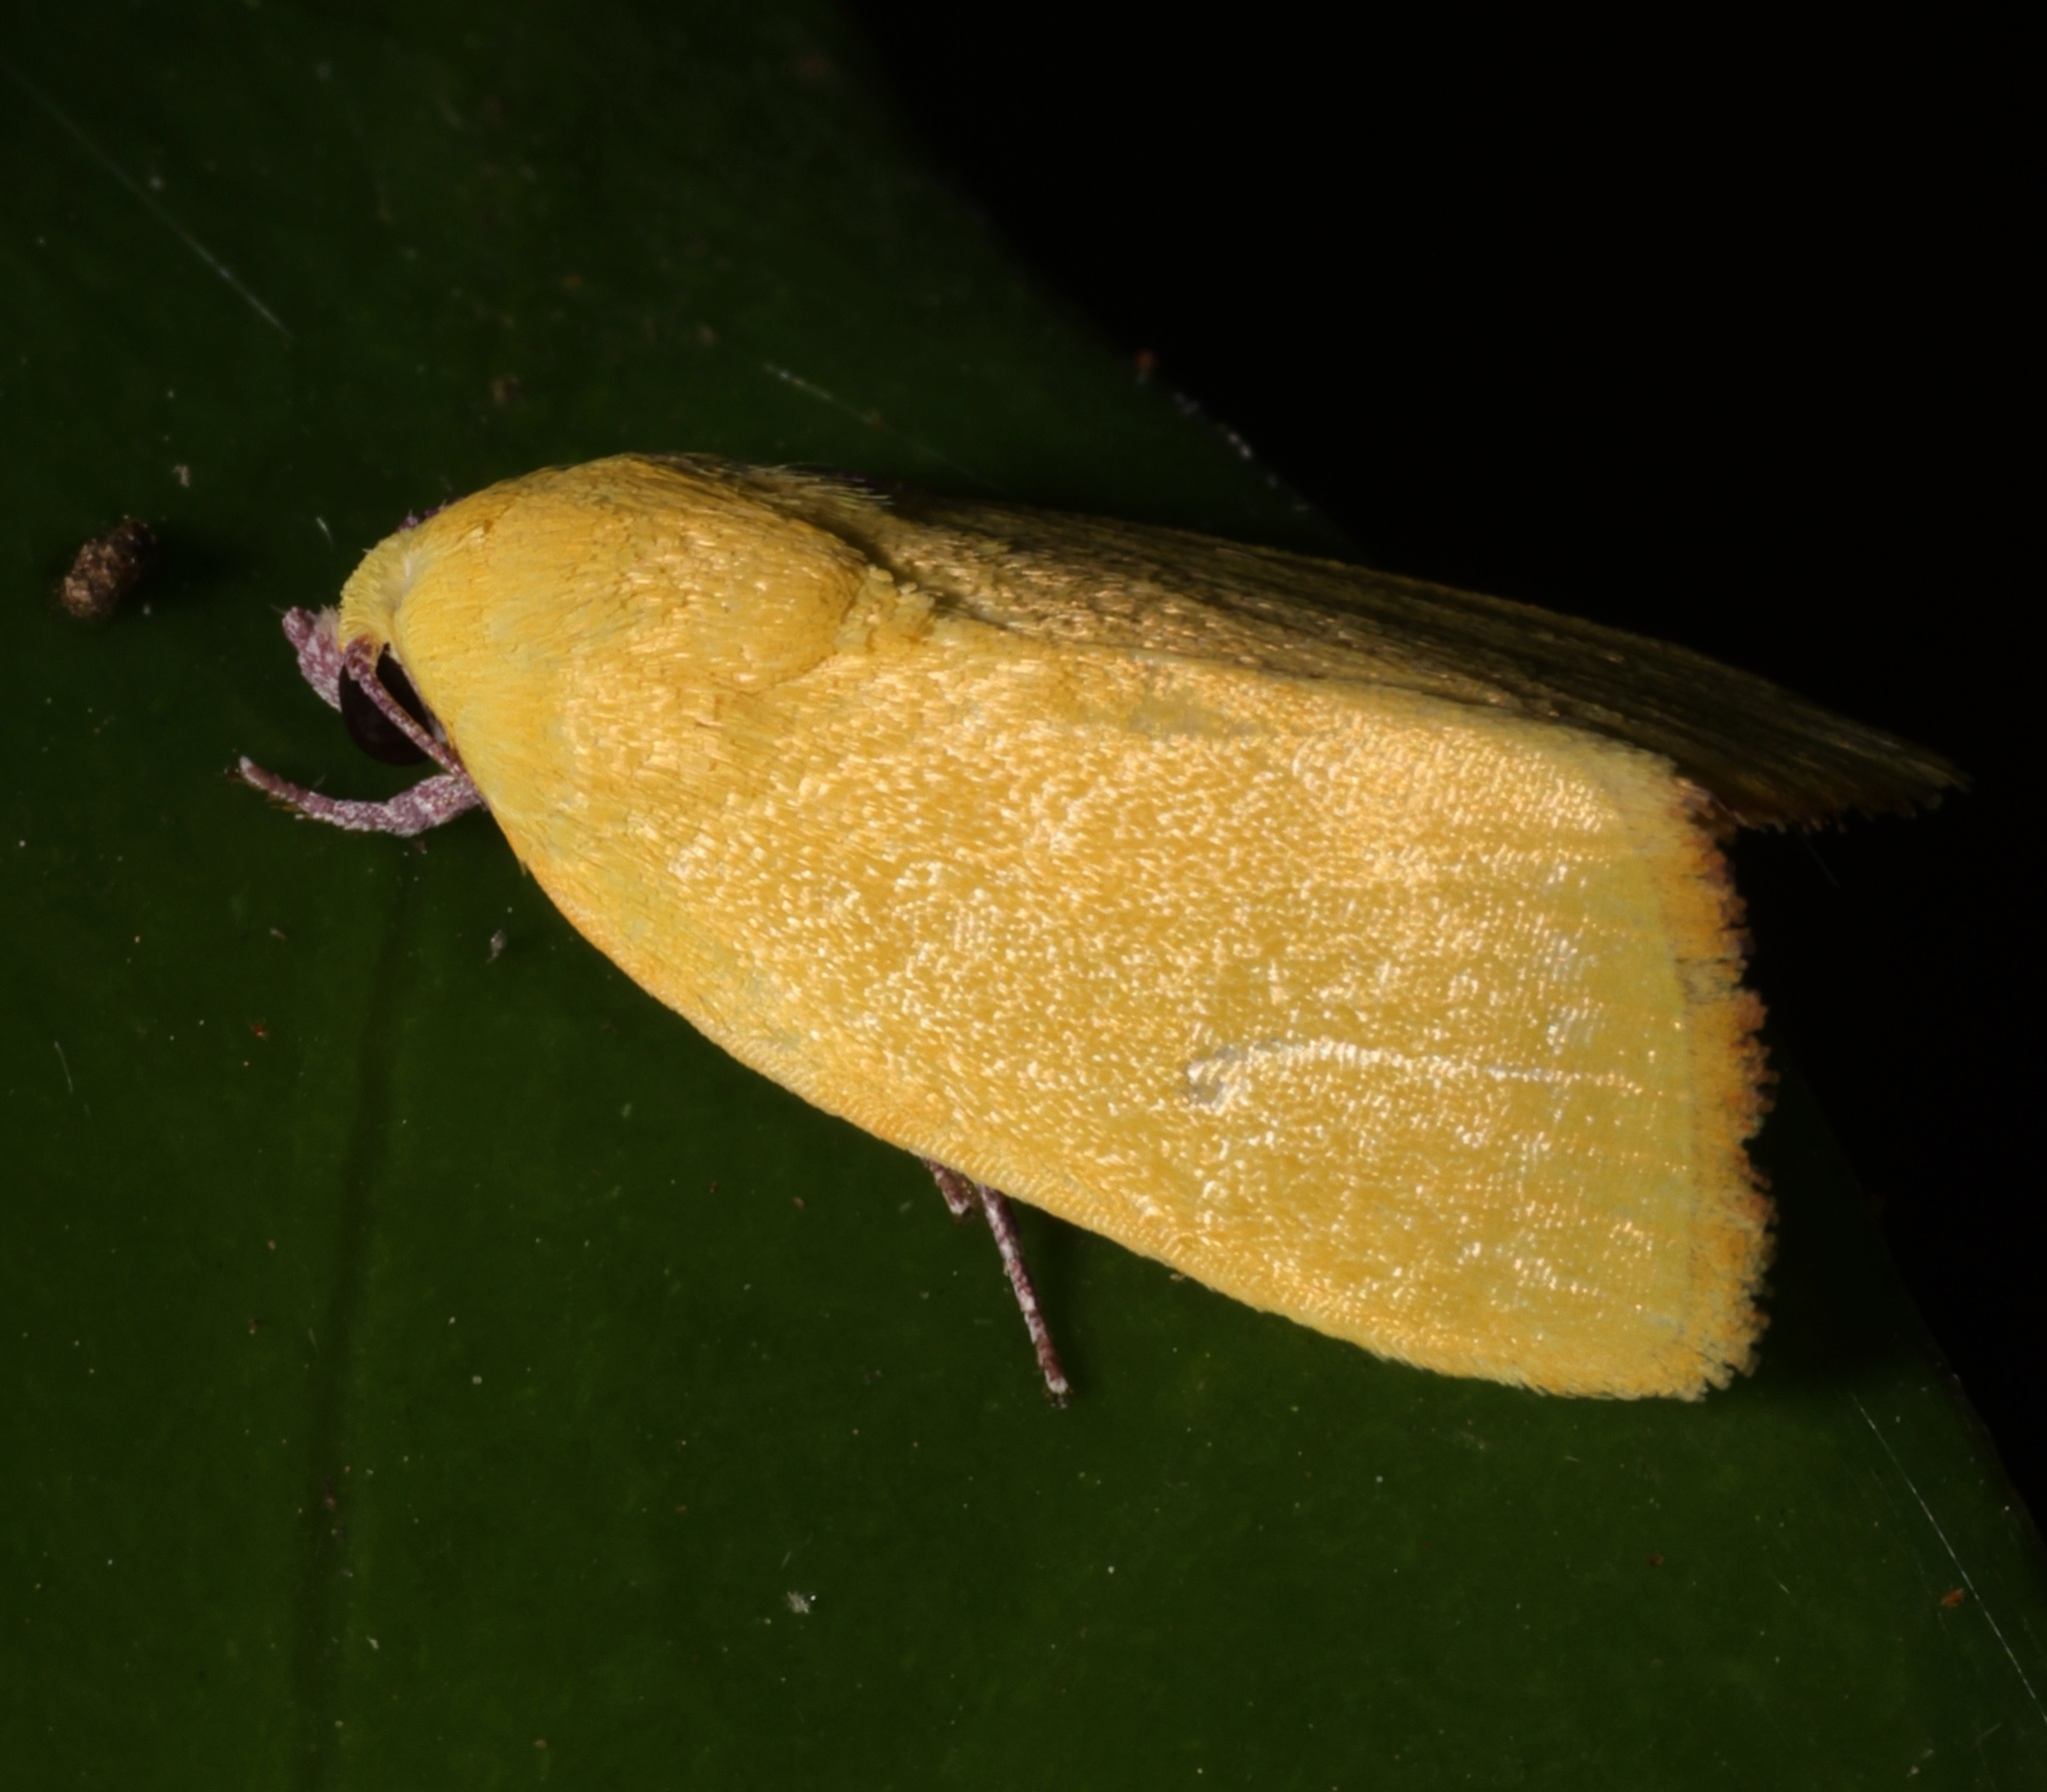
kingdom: Animalia
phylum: Arthropoda
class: Insecta
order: Lepidoptera
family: Nolidae
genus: Earias
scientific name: Earias luteolaria
